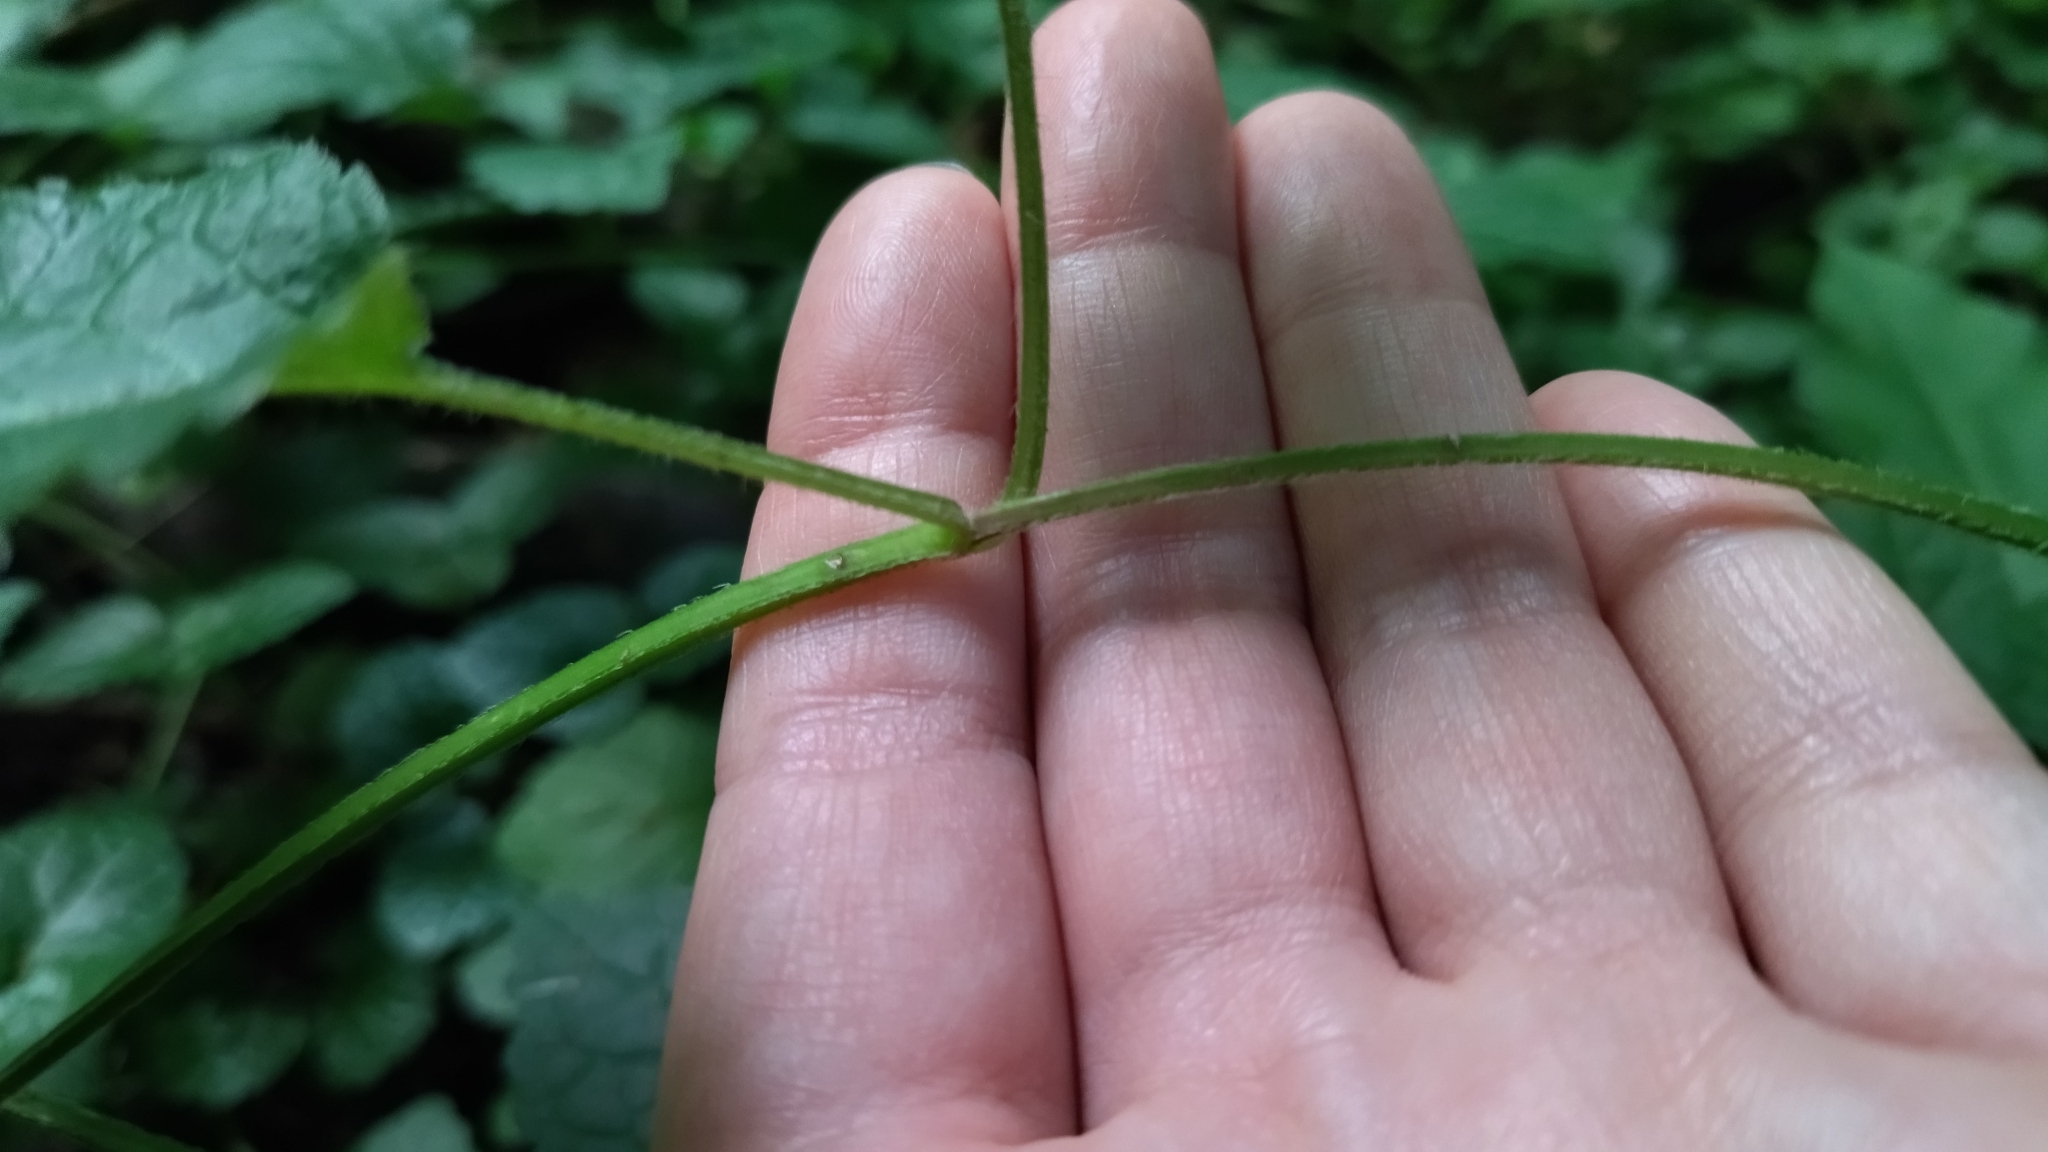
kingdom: Plantae
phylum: Tracheophyta
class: Magnoliopsida
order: Lamiales
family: Lamiaceae
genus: Lamium
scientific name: Lamium galeobdolon
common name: Yellow archangel
